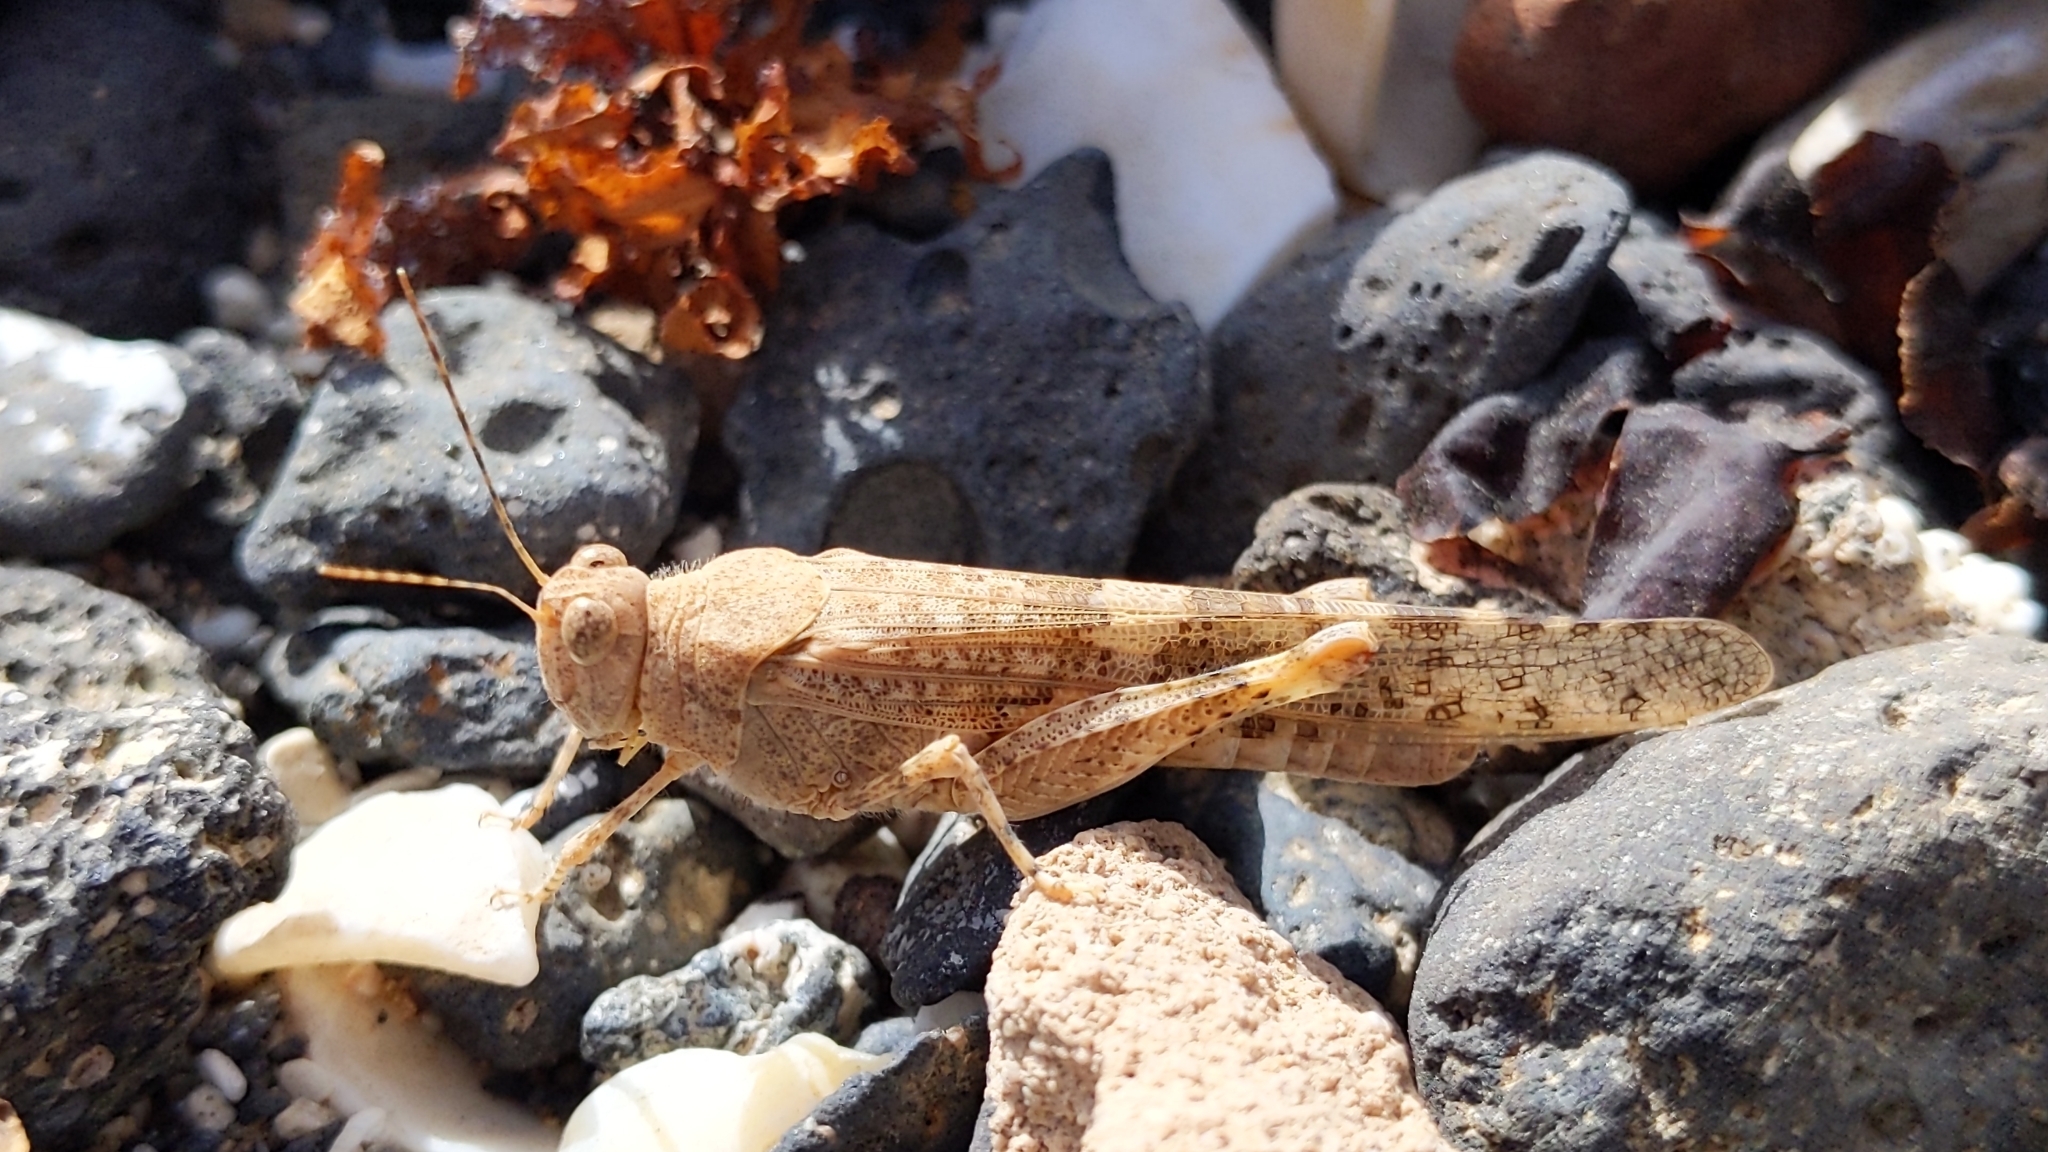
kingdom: Animalia
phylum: Arthropoda
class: Insecta
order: Orthoptera
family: Acrididae
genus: Sphingonotus
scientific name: Sphingonotus rubescens
